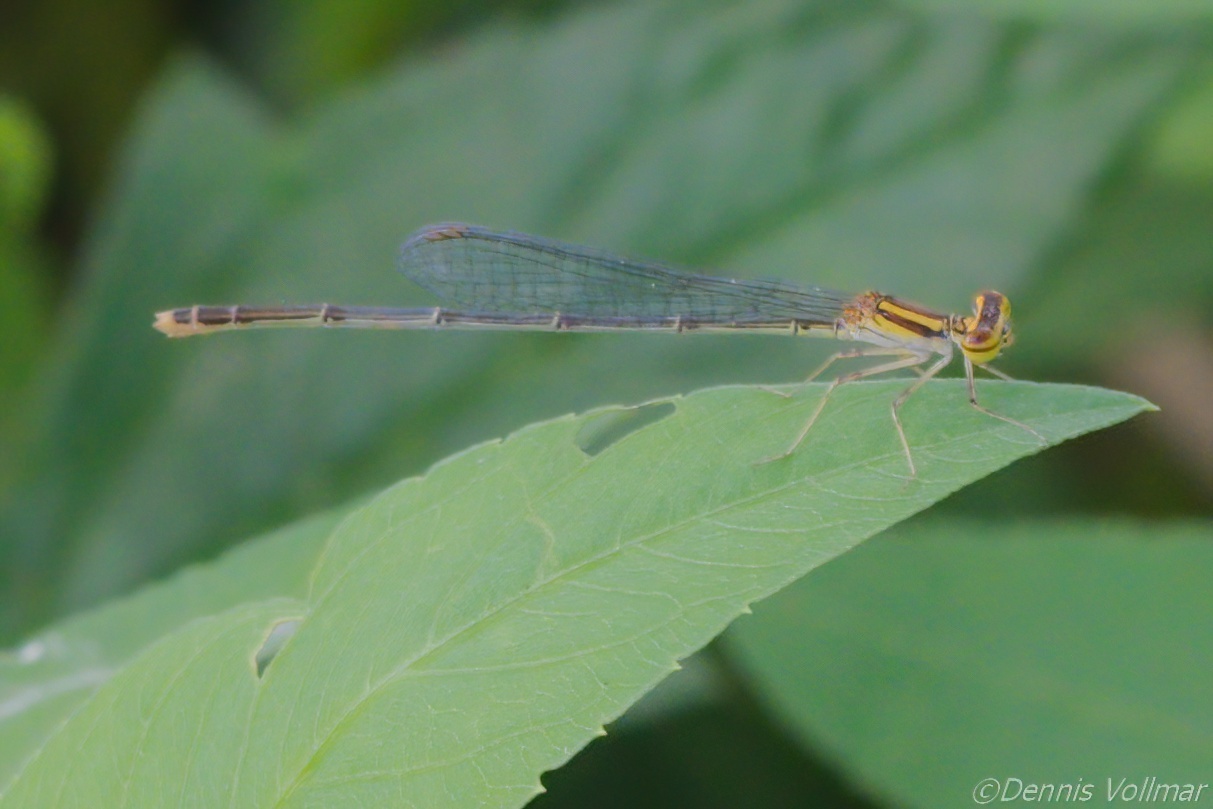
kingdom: Animalia
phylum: Arthropoda
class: Insecta
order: Odonata
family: Coenagrionidae
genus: Enallagma
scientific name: Enallagma pollutum
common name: Florida bluet
